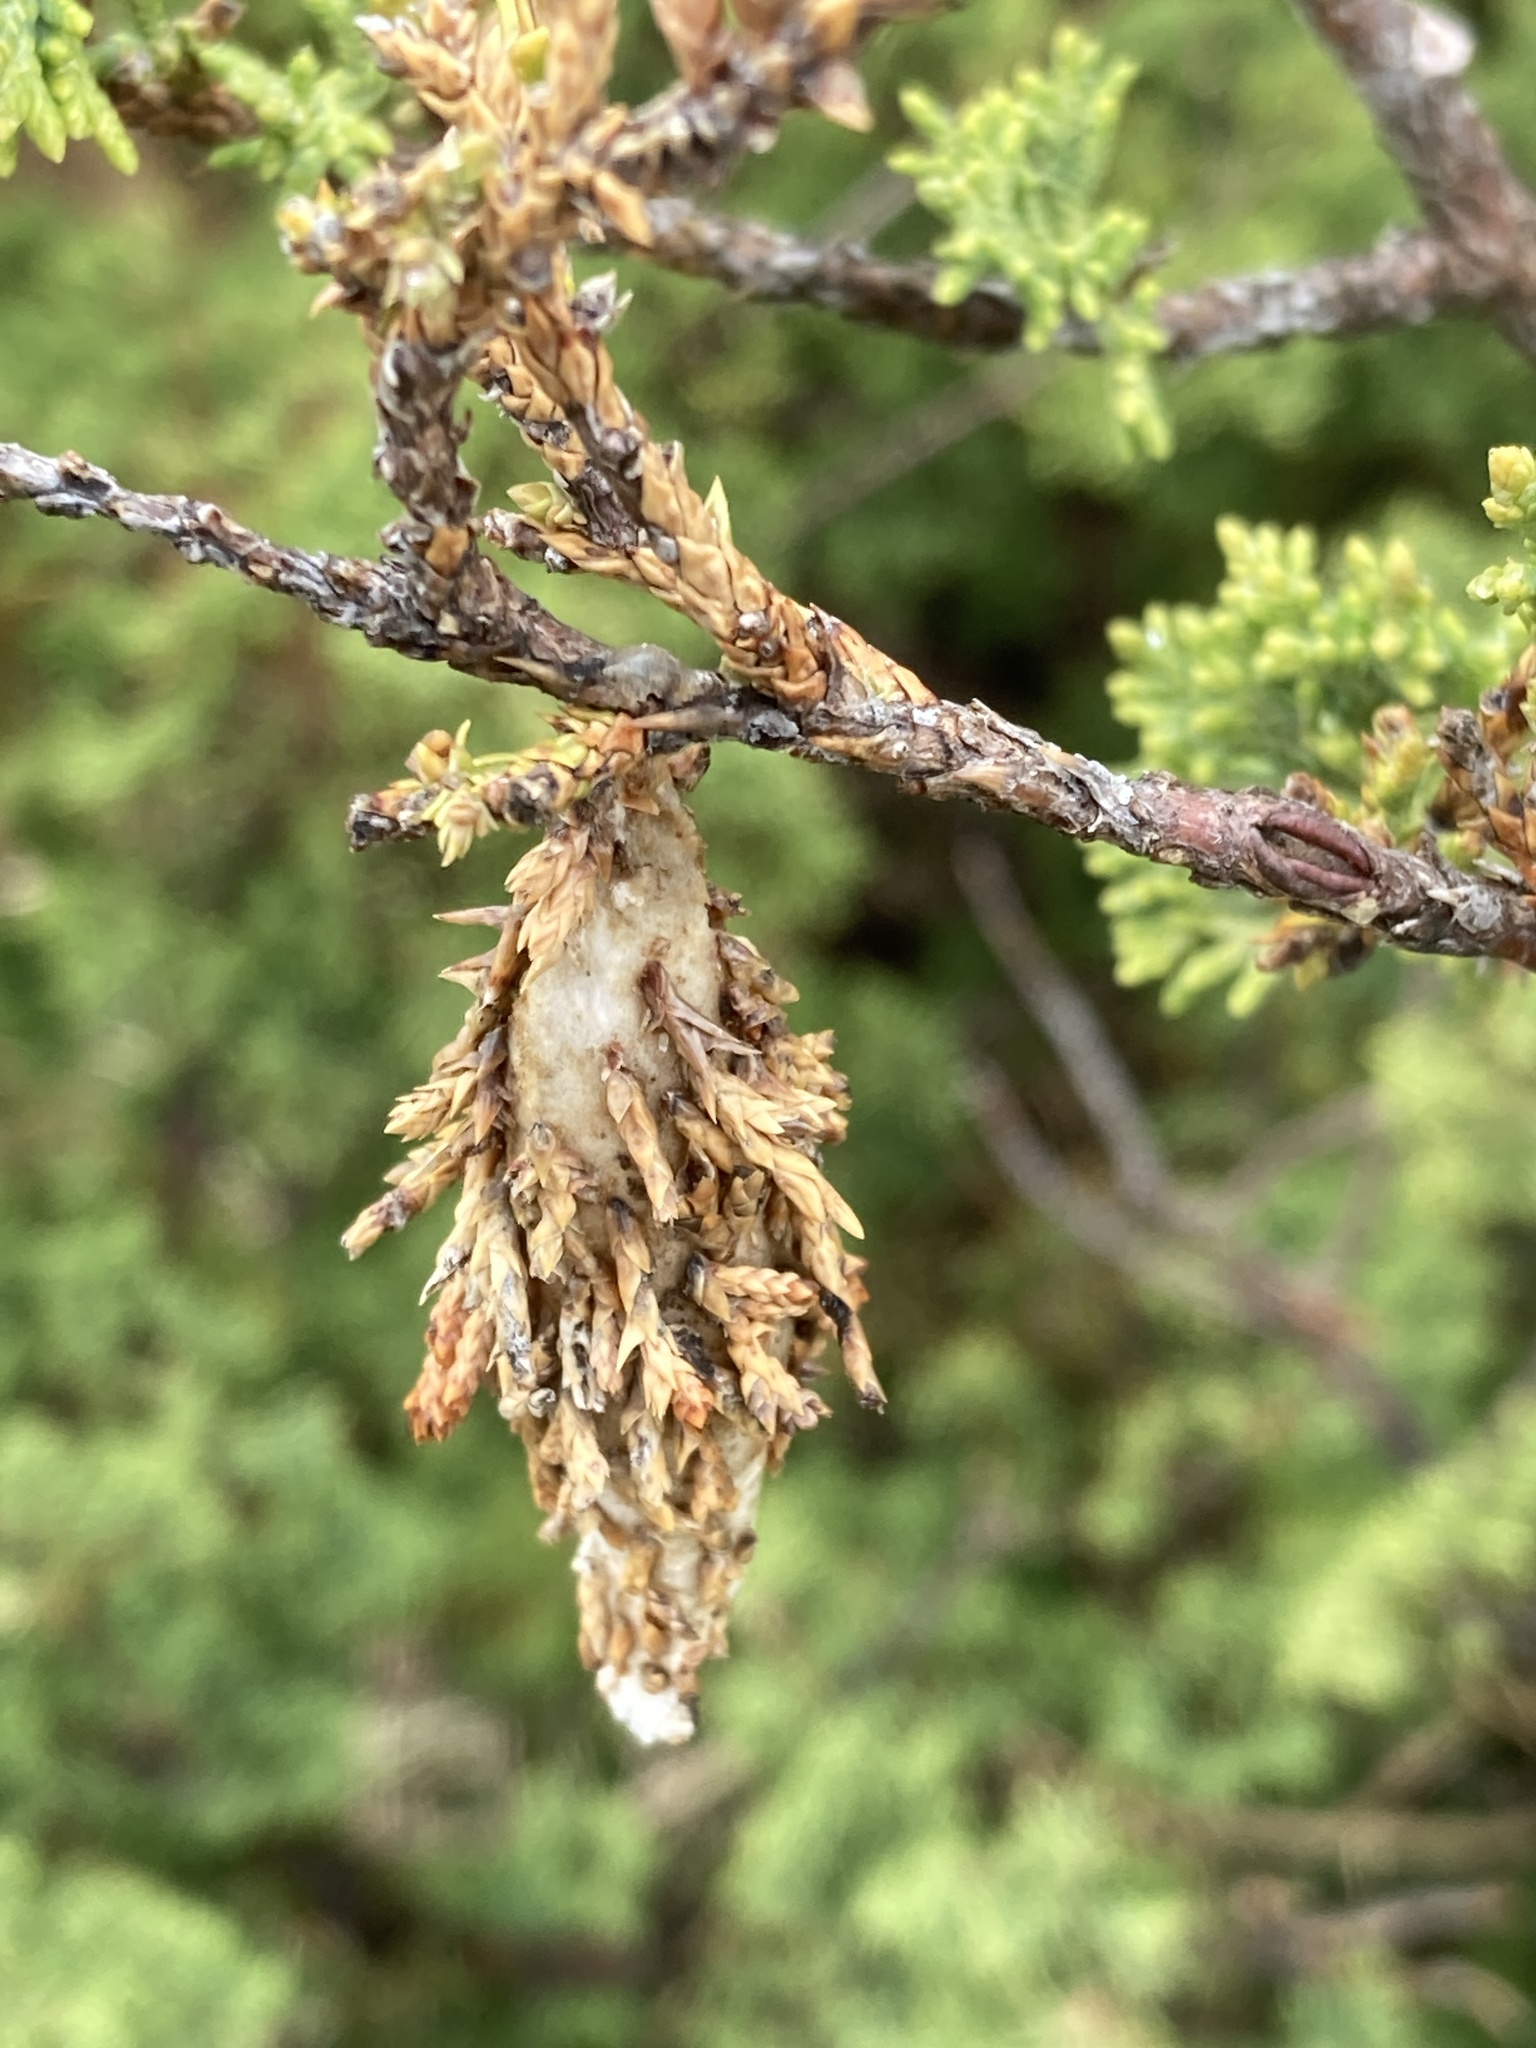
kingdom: Animalia
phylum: Arthropoda
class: Insecta
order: Lepidoptera
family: Psychidae
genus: Thyridopteryx
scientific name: Thyridopteryx ephemeraeformis
